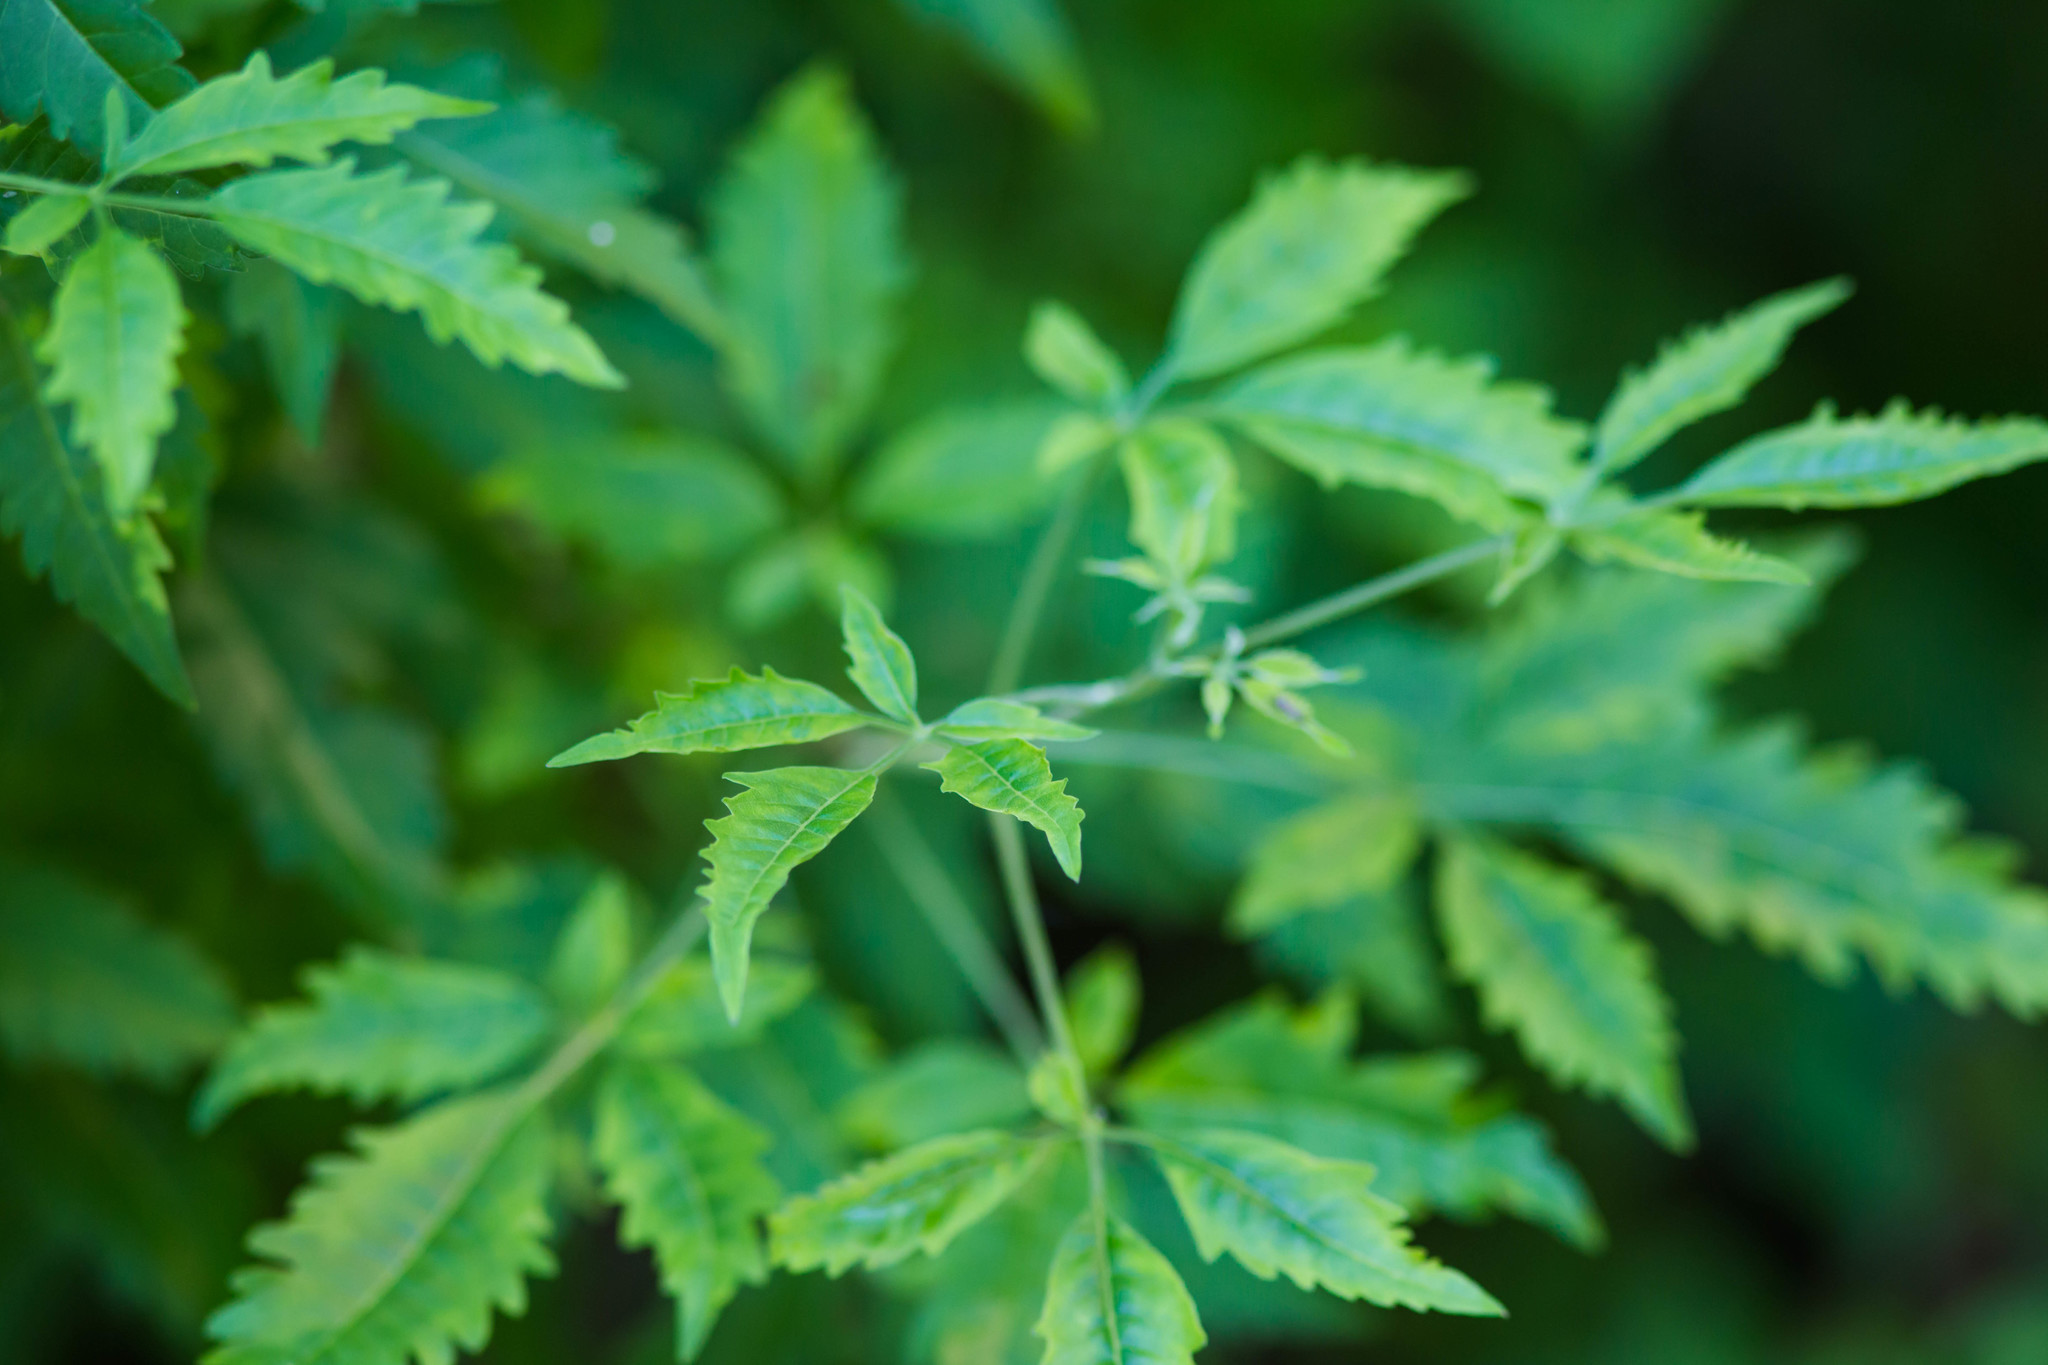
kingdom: Plantae
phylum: Tracheophyta
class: Magnoliopsida
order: Lamiales
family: Lamiaceae
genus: Vitex
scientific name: Vitex negundo
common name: Chinese chastetree
